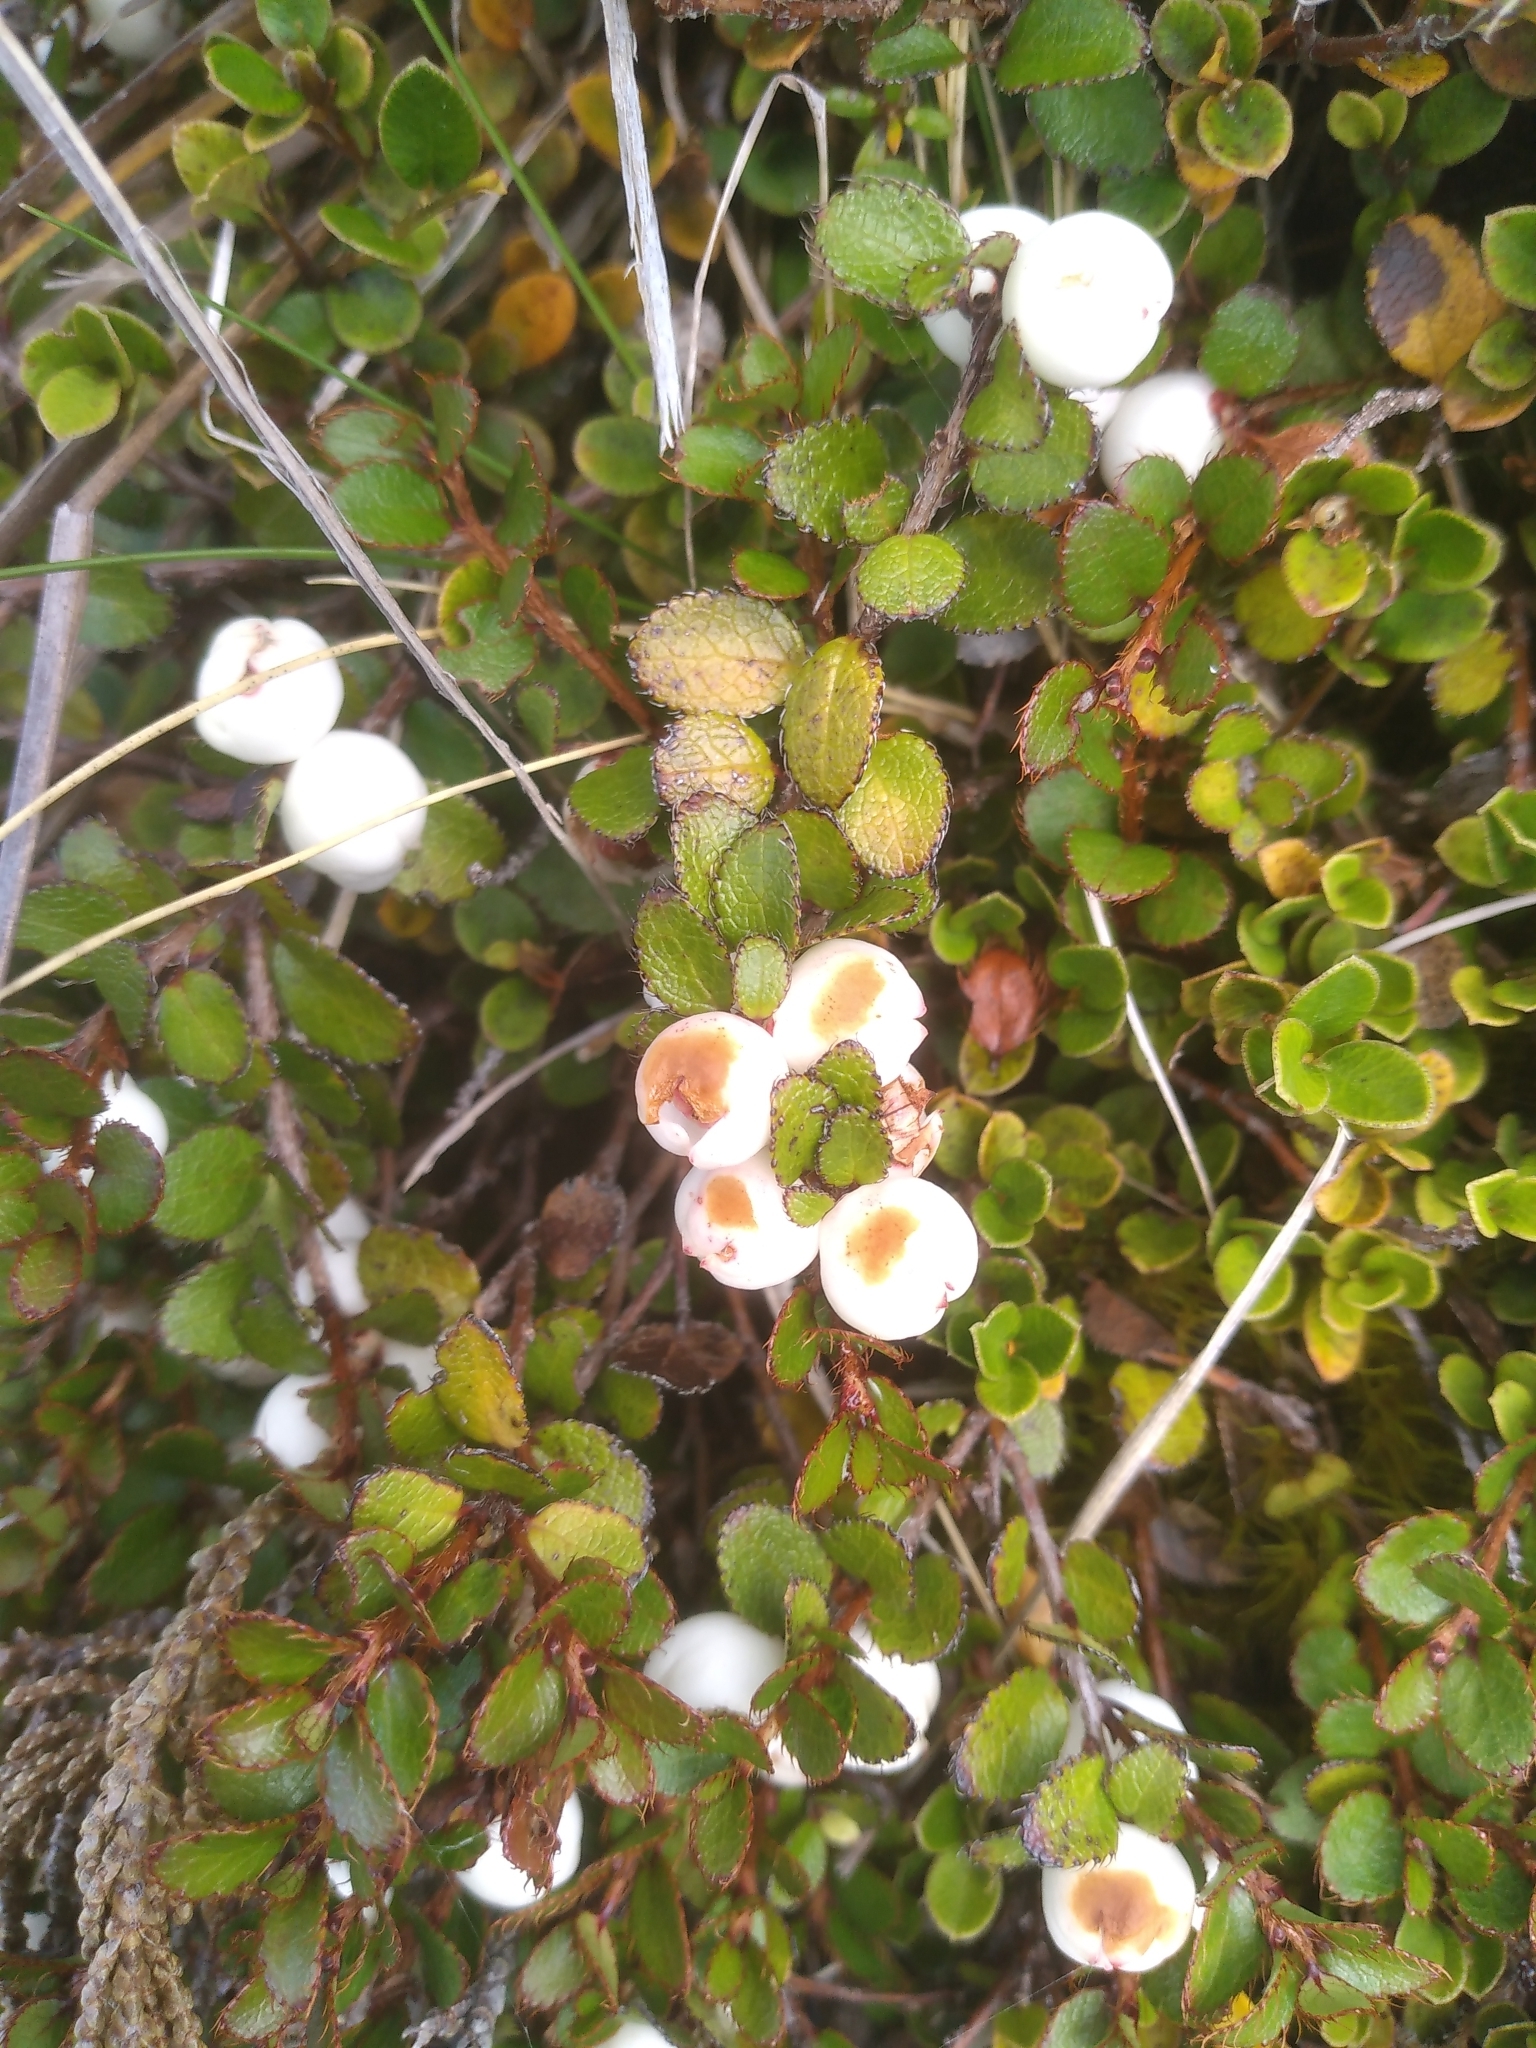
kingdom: Plantae
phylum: Tracheophyta
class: Magnoliopsida
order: Ericales
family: Ericaceae
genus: Gaultheria
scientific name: Gaultheria depressa
